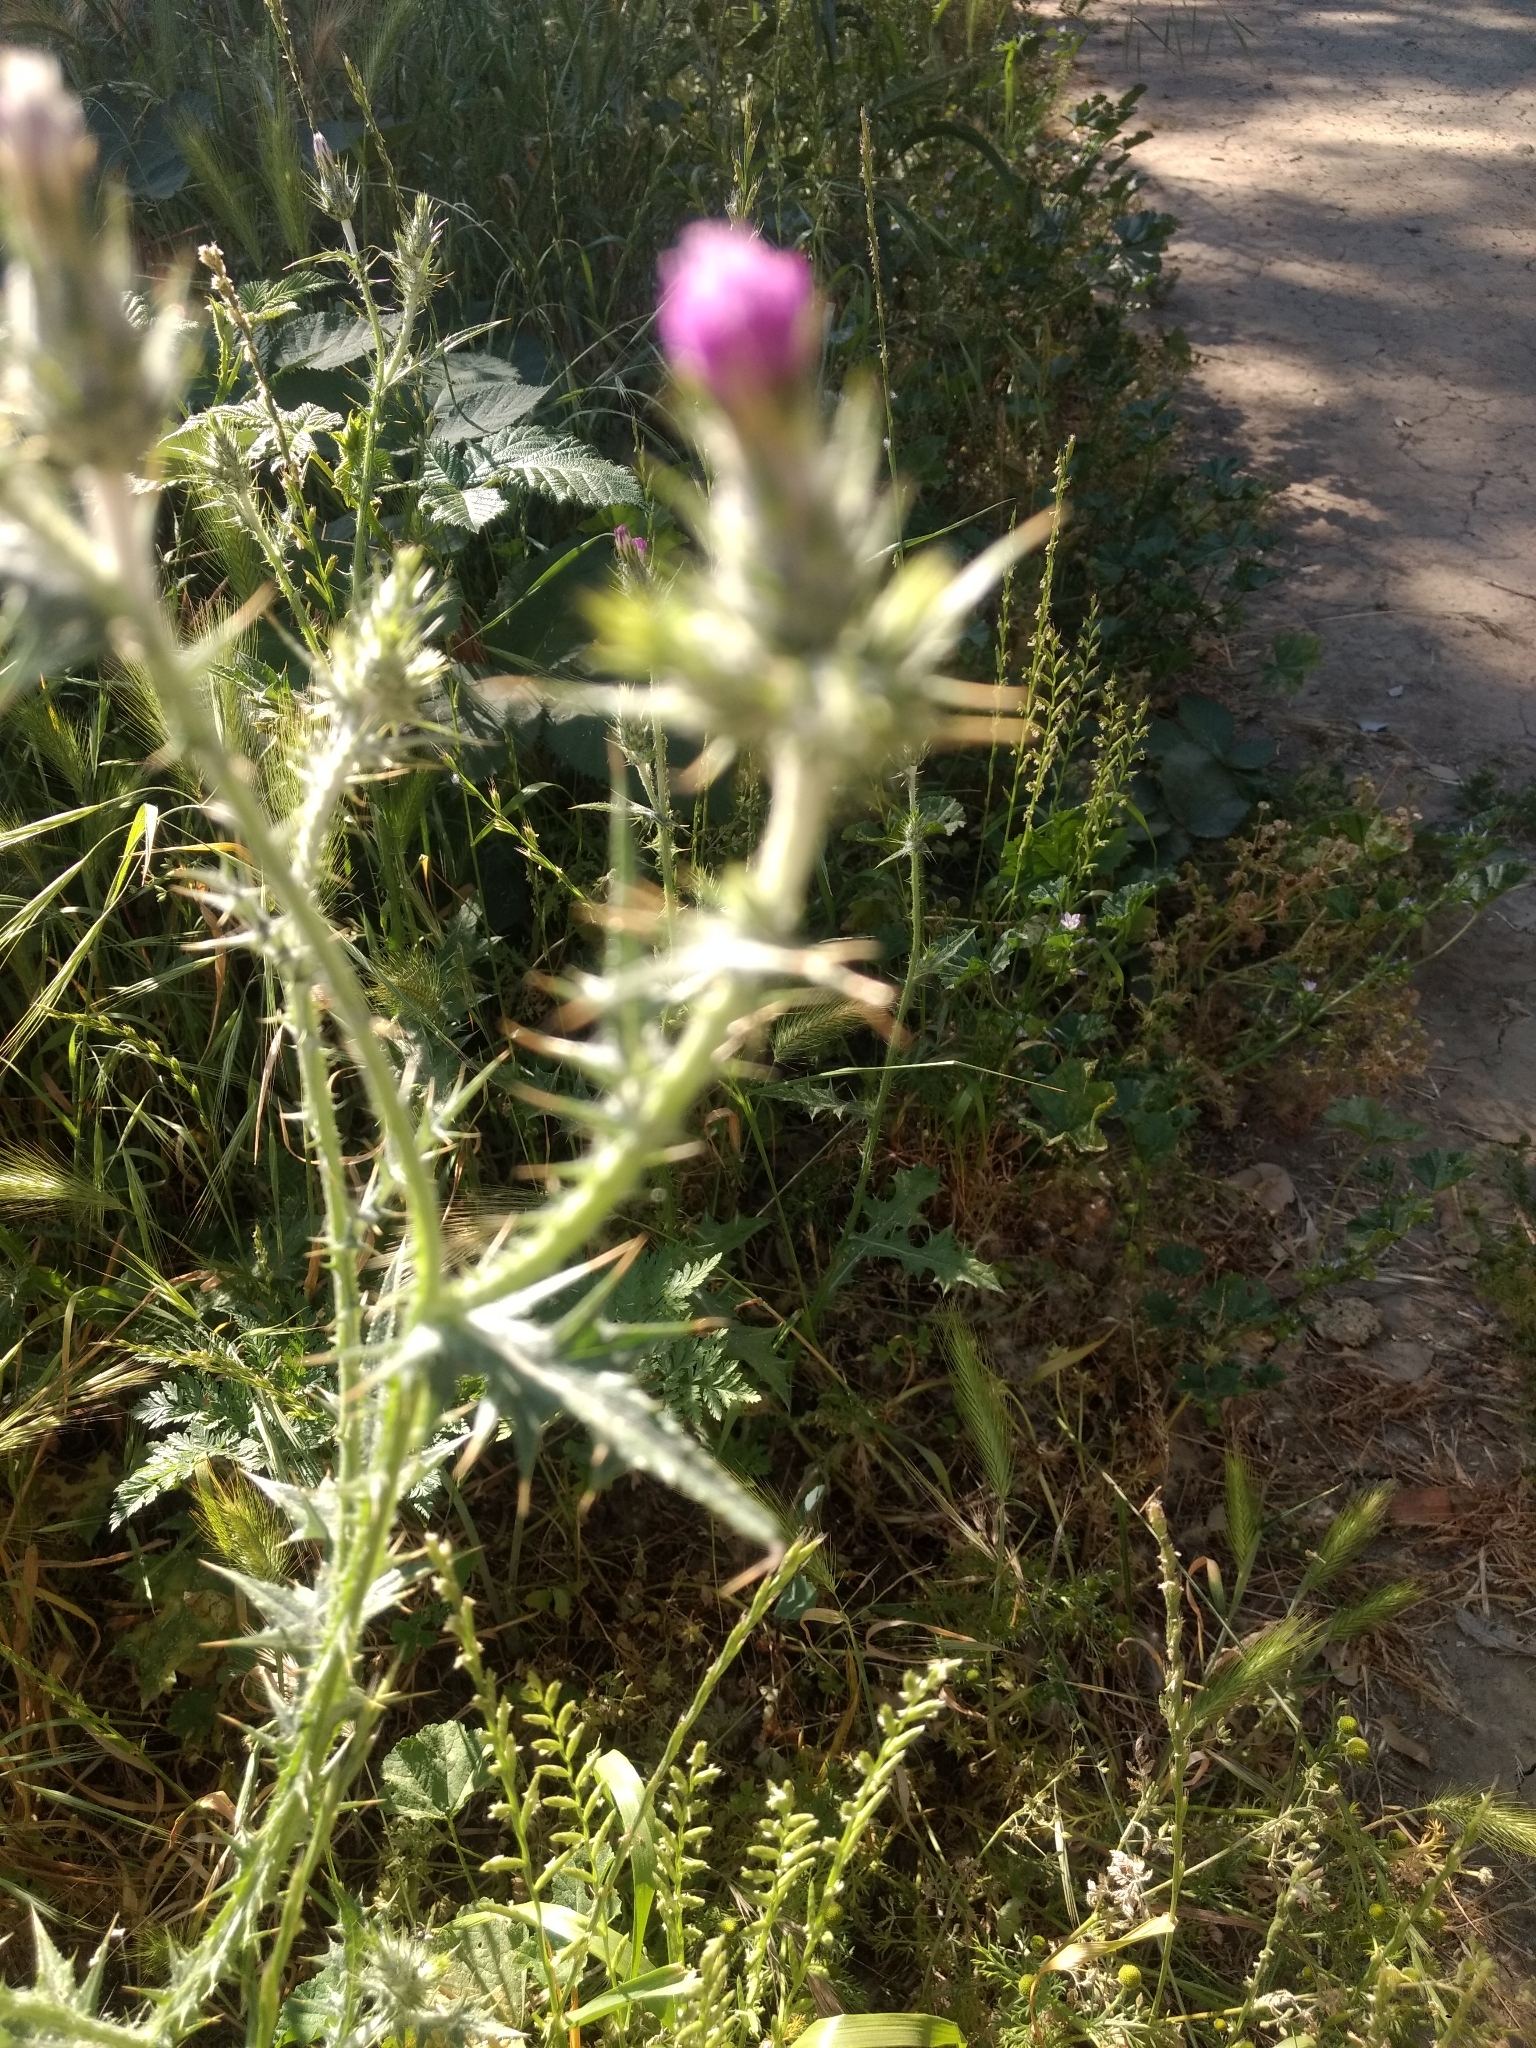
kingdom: Plantae
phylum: Tracheophyta
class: Magnoliopsida
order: Asterales
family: Asteraceae
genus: Carduus
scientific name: Carduus pycnocephalus
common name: Plymouth thistle
